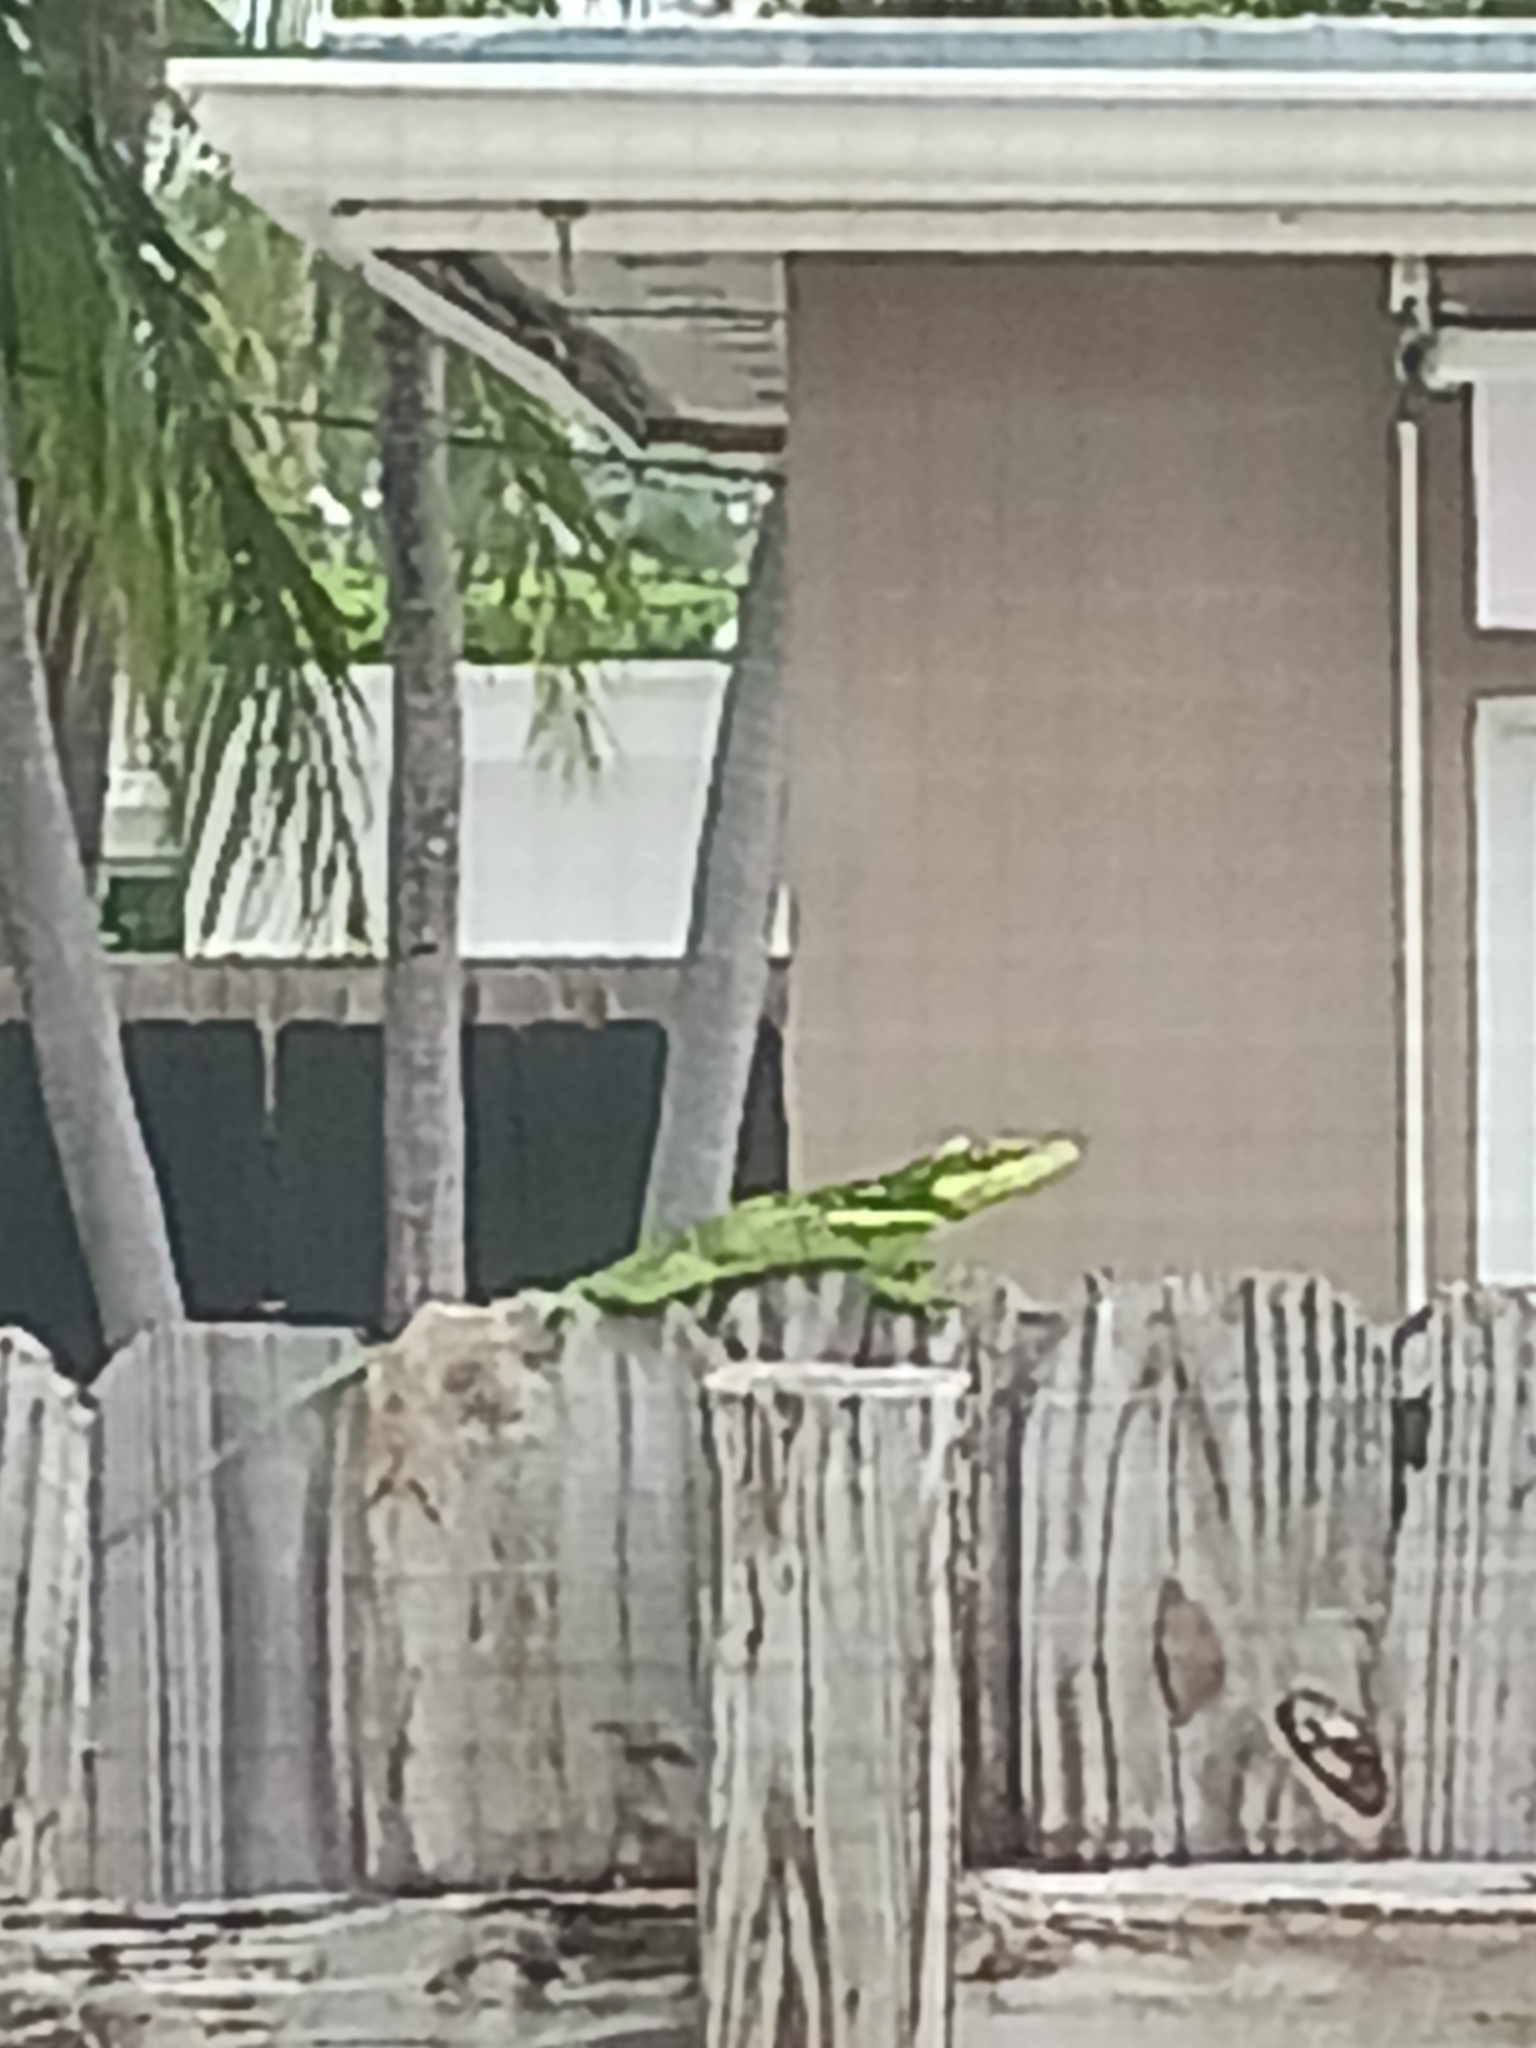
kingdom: Animalia
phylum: Chordata
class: Squamata
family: Dactyloidae
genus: Anolis
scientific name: Anolis equestris
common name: Knight anole
